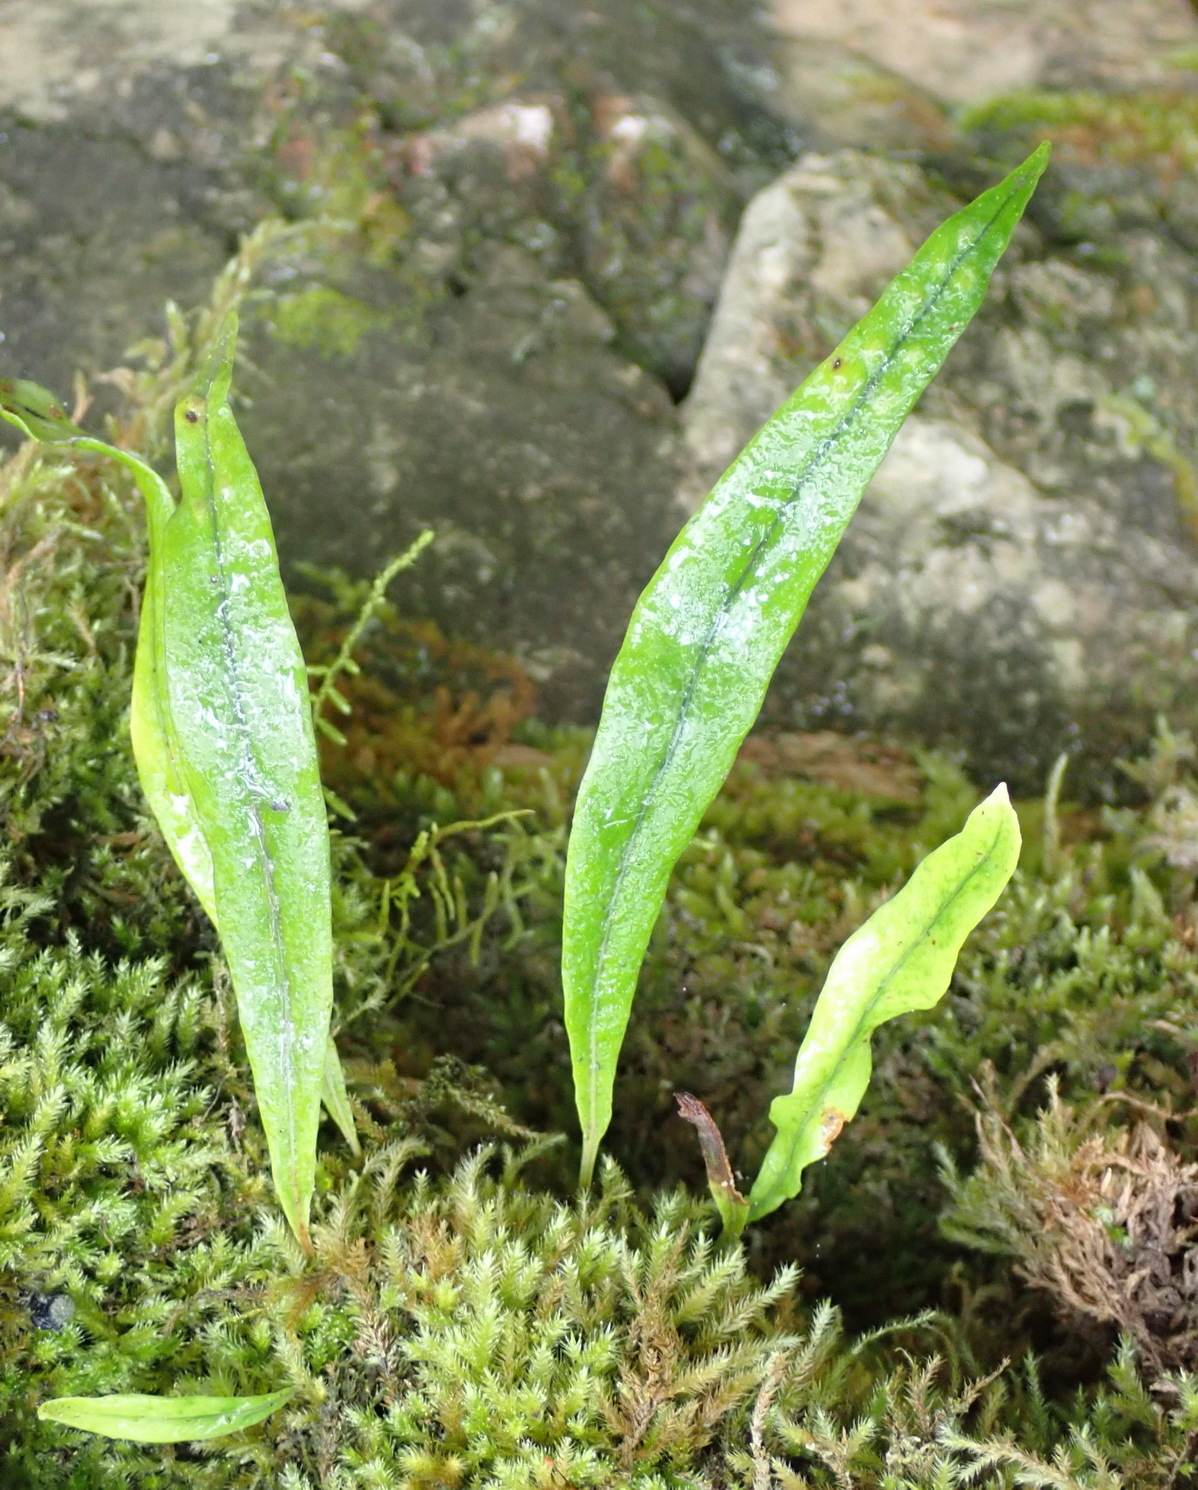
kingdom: Plantae
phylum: Tracheophyta
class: Polypodiopsida
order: Polypodiales
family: Polypodiaceae
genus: Pleopeltis
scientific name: Pleopeltis macrocarpa
